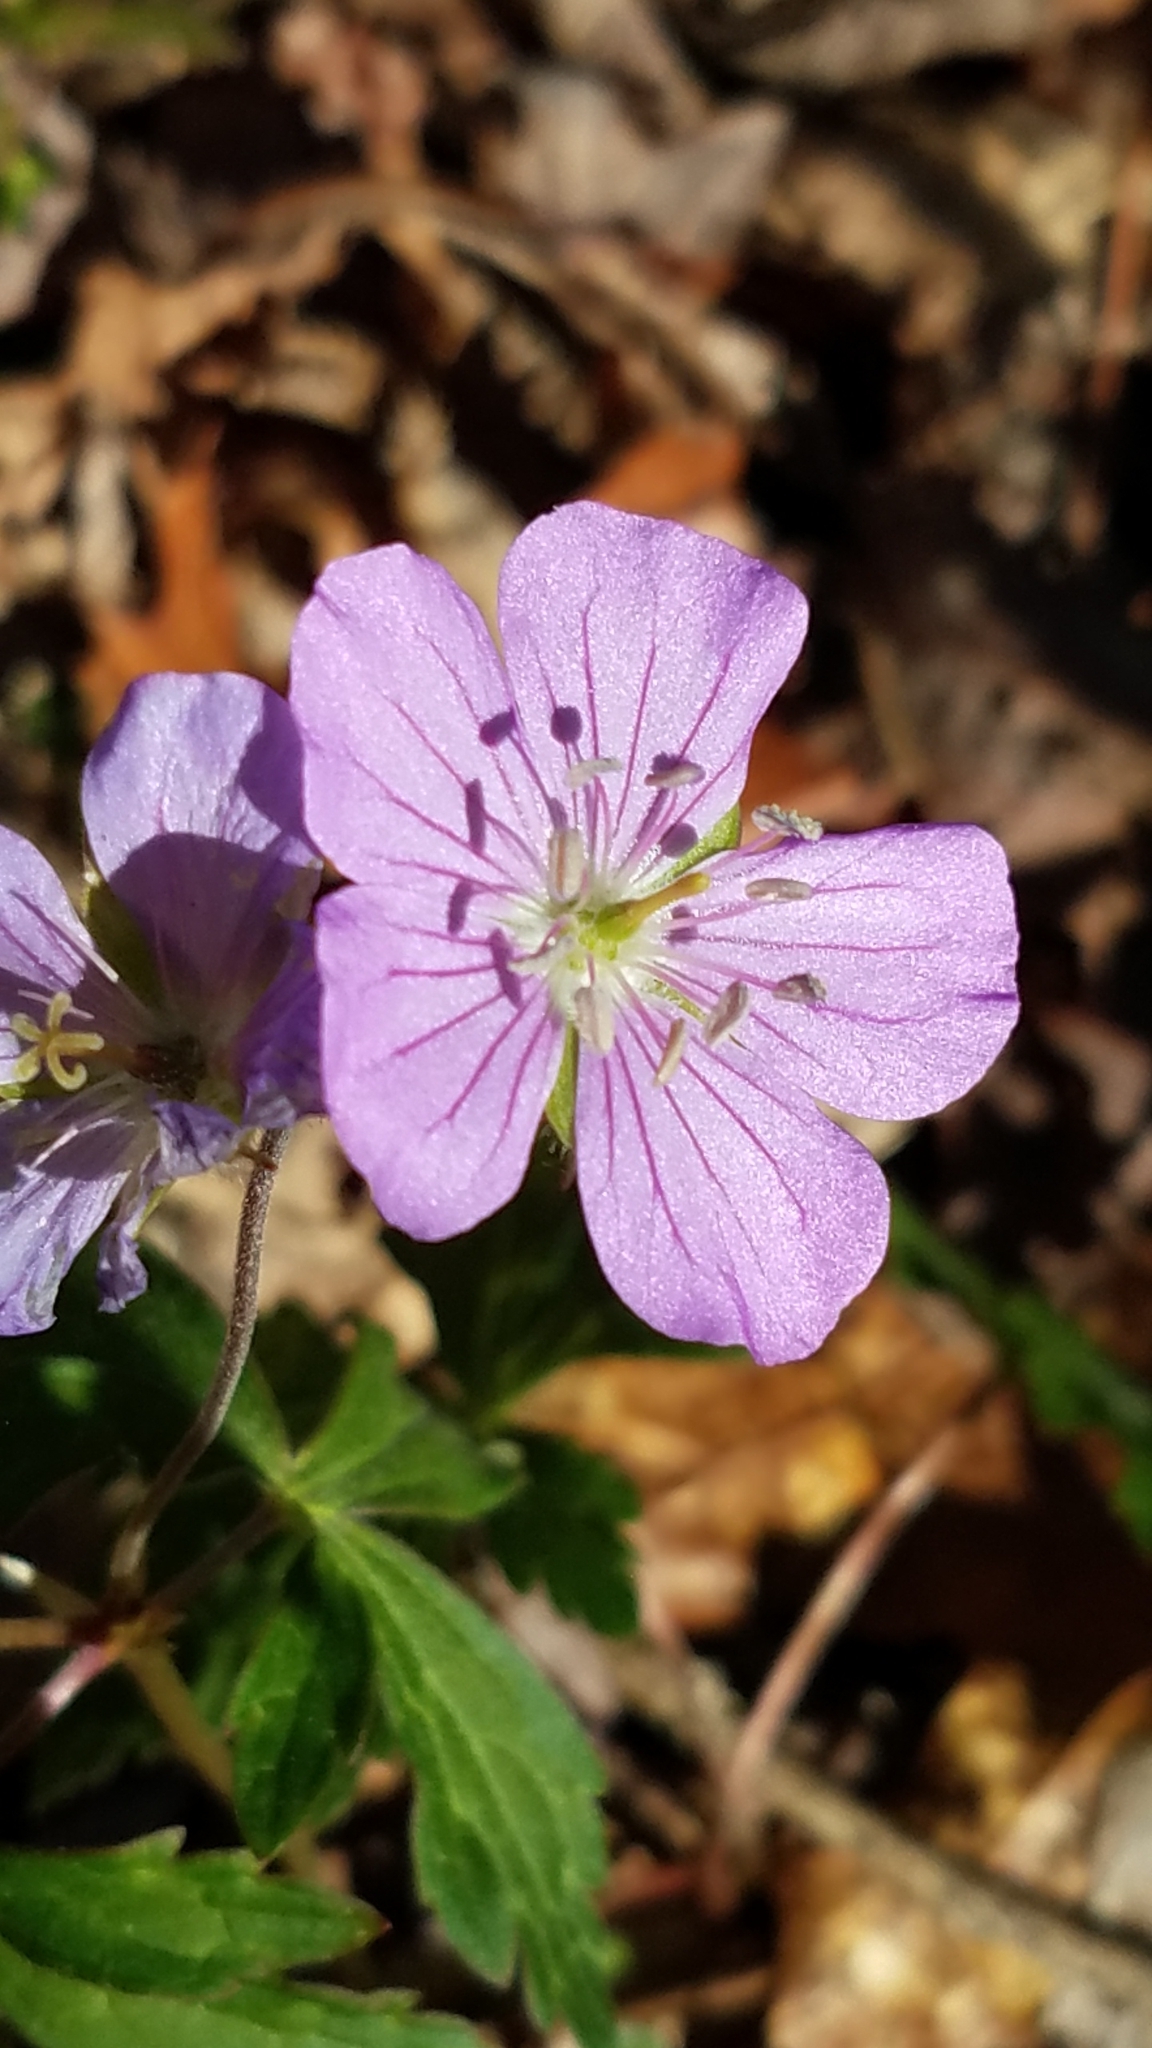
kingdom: Plantae
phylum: Tracheophyta
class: Magnoliopsida
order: Geraniales
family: Geraniaceae
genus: Geranium
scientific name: Geranium maculatum
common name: Spotted geranium
